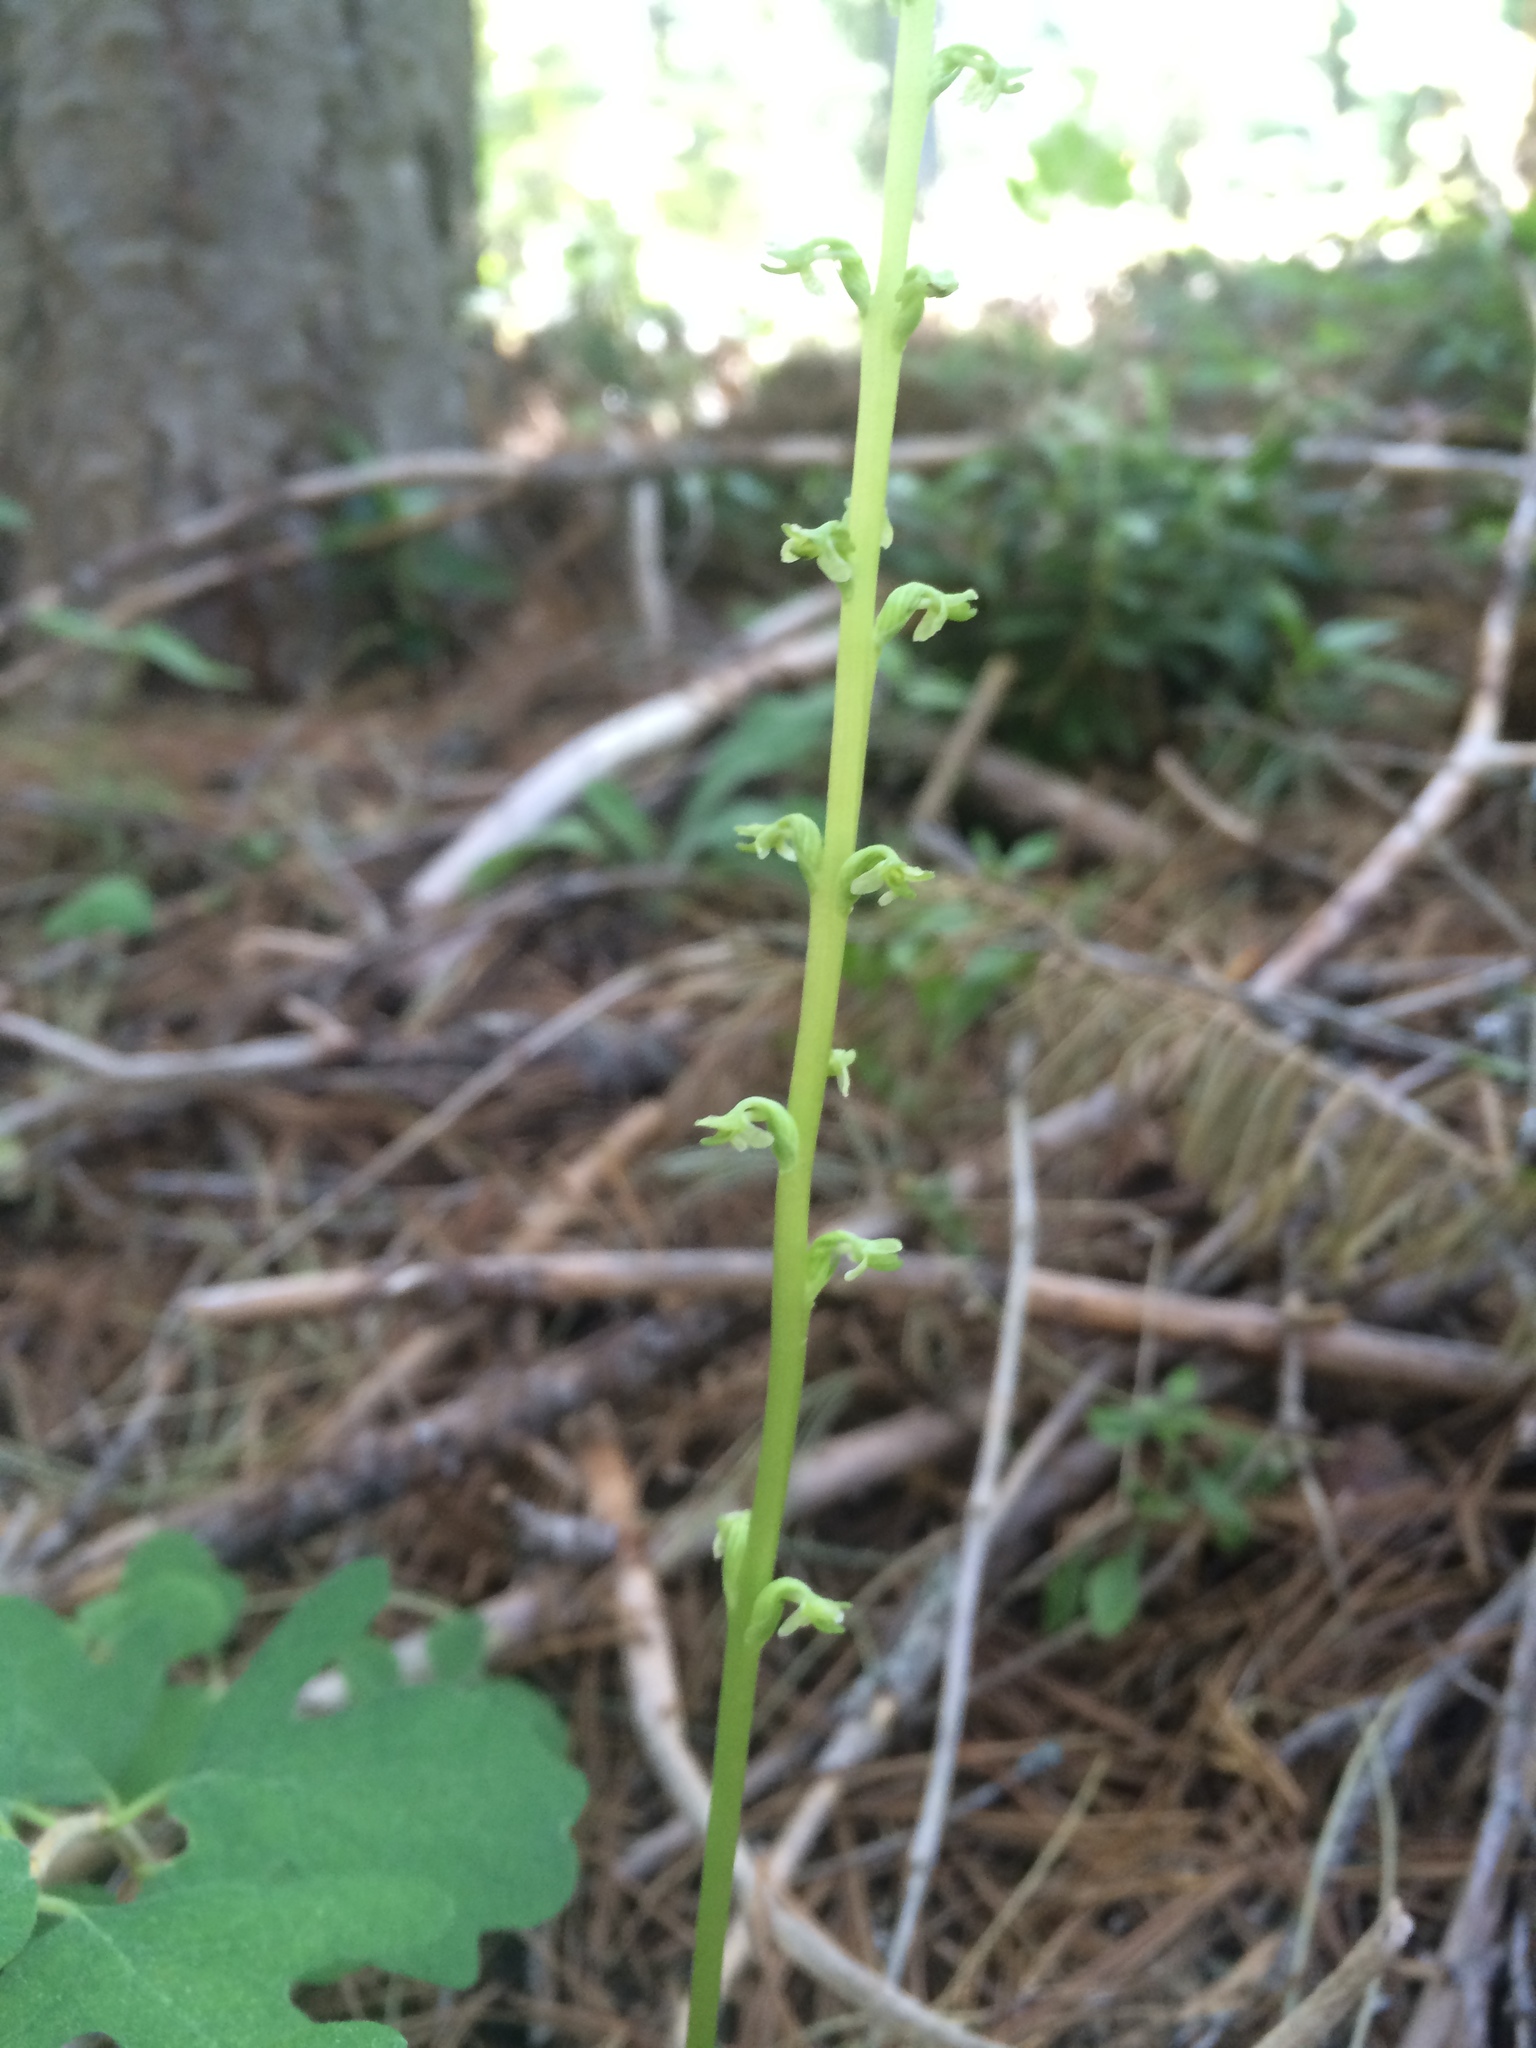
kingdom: Plantae
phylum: Tracheophyta
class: Liliopsida
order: Asparagales
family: Orchidaceae
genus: Platanthera
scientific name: Platanthera unalascensis
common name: Alaska bog orchid
